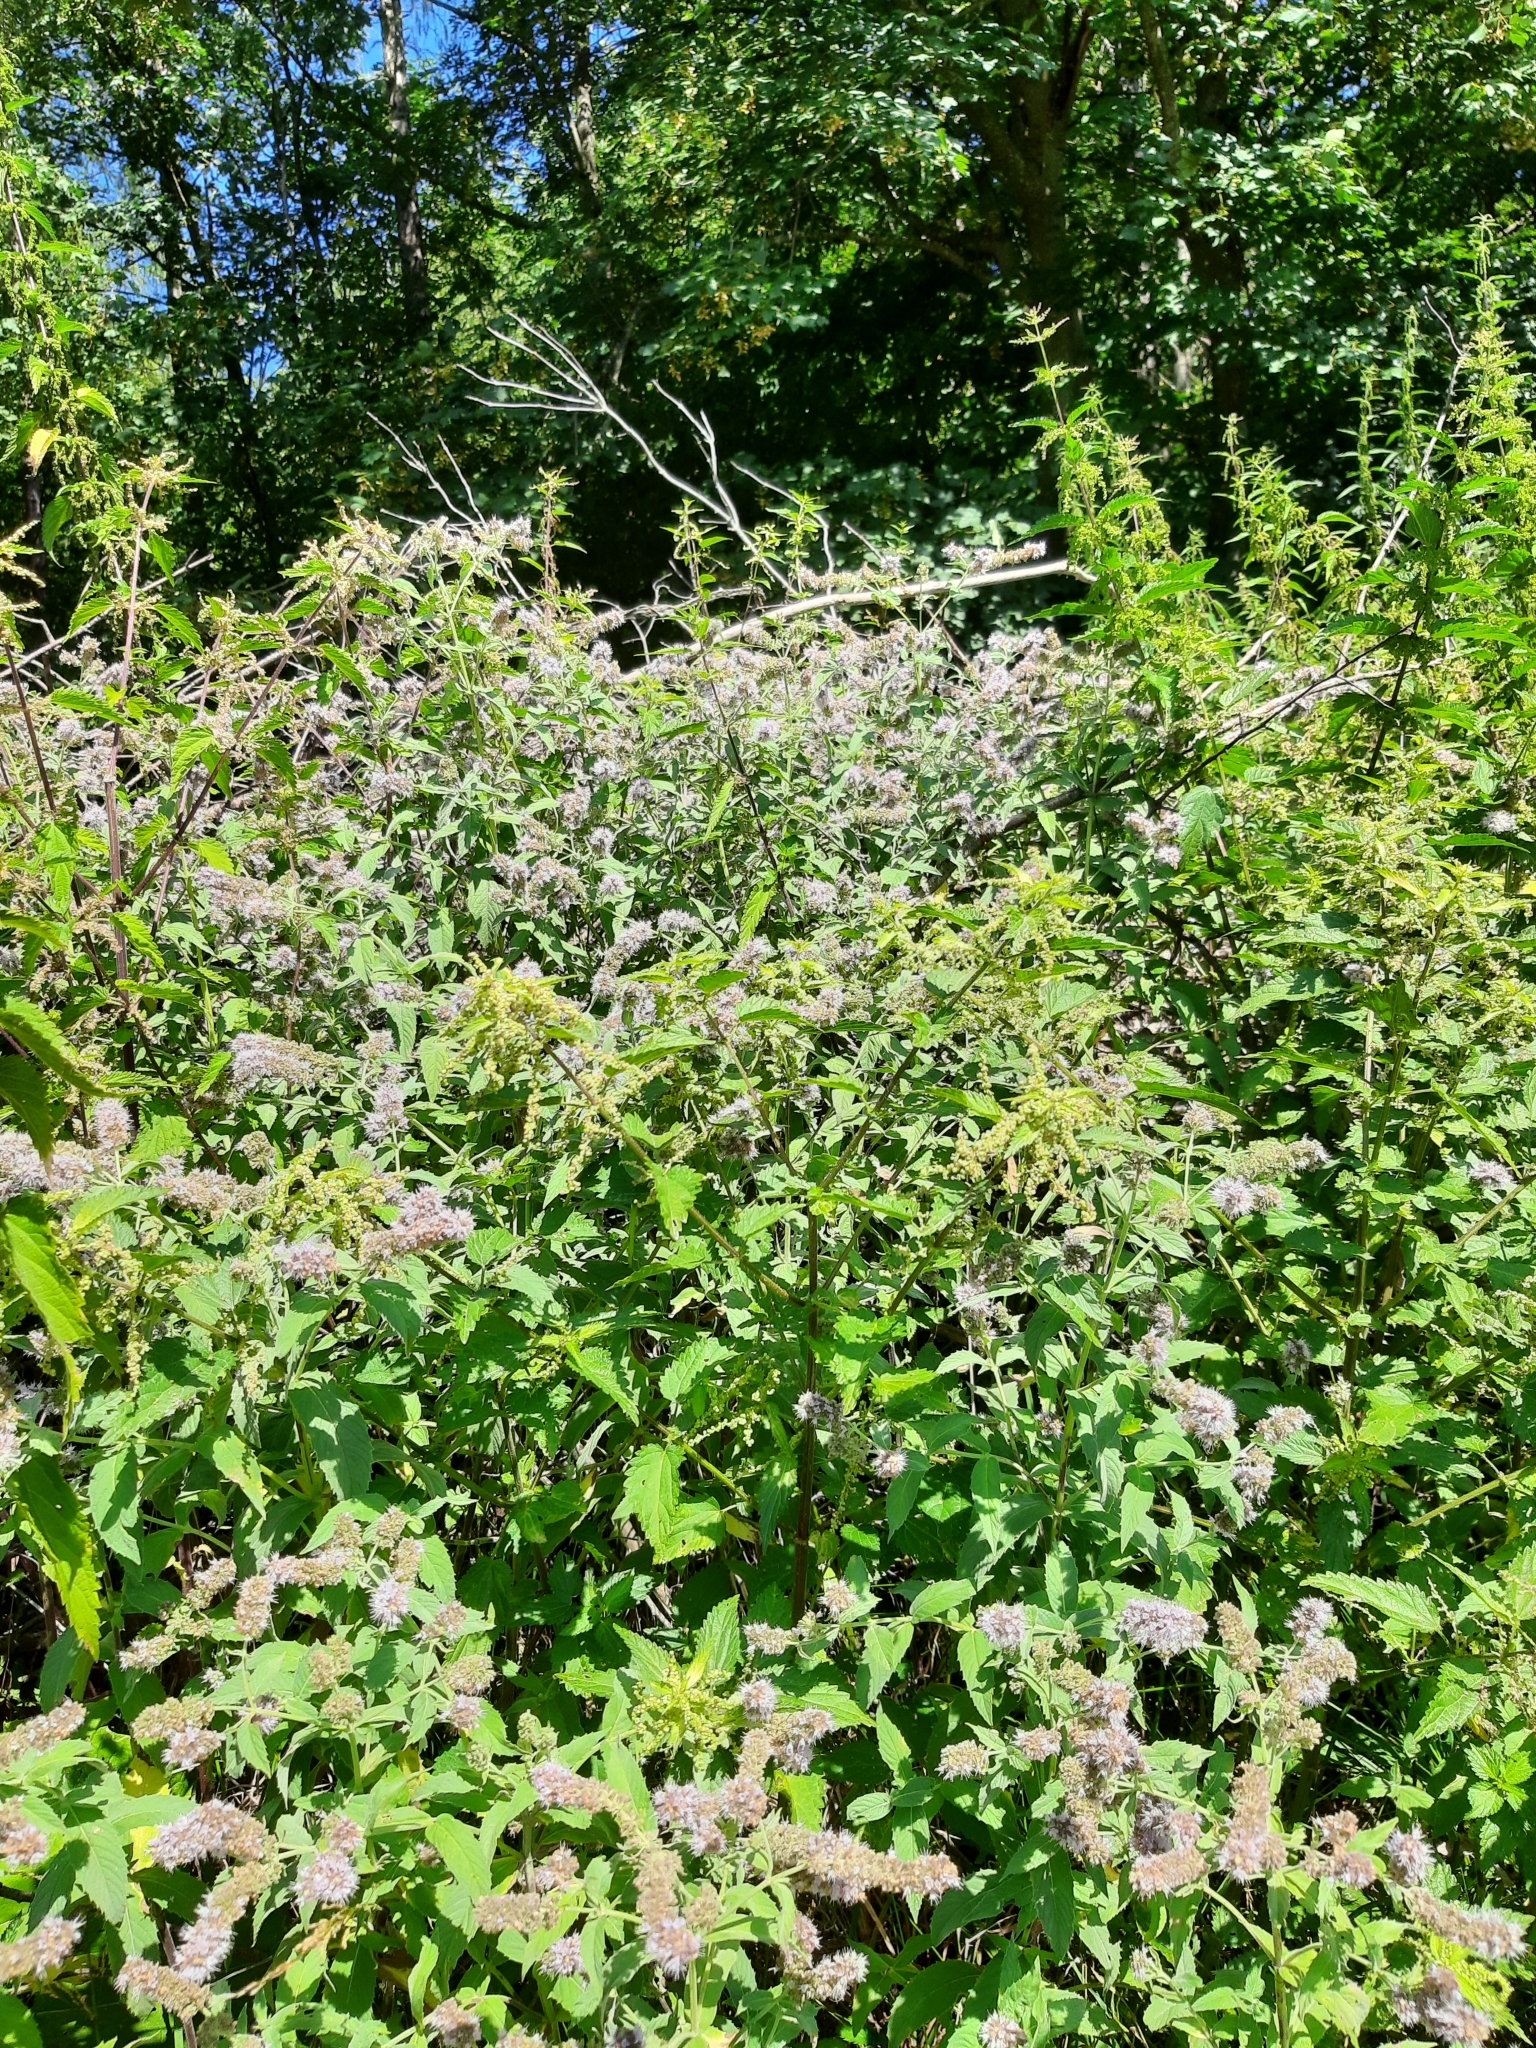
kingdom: Plantae
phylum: Tracheophyta
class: Magnoliopsida
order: Lamiales
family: Lamiaceae
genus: Mentha
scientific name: Mentha longifolia
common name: Horse mint
